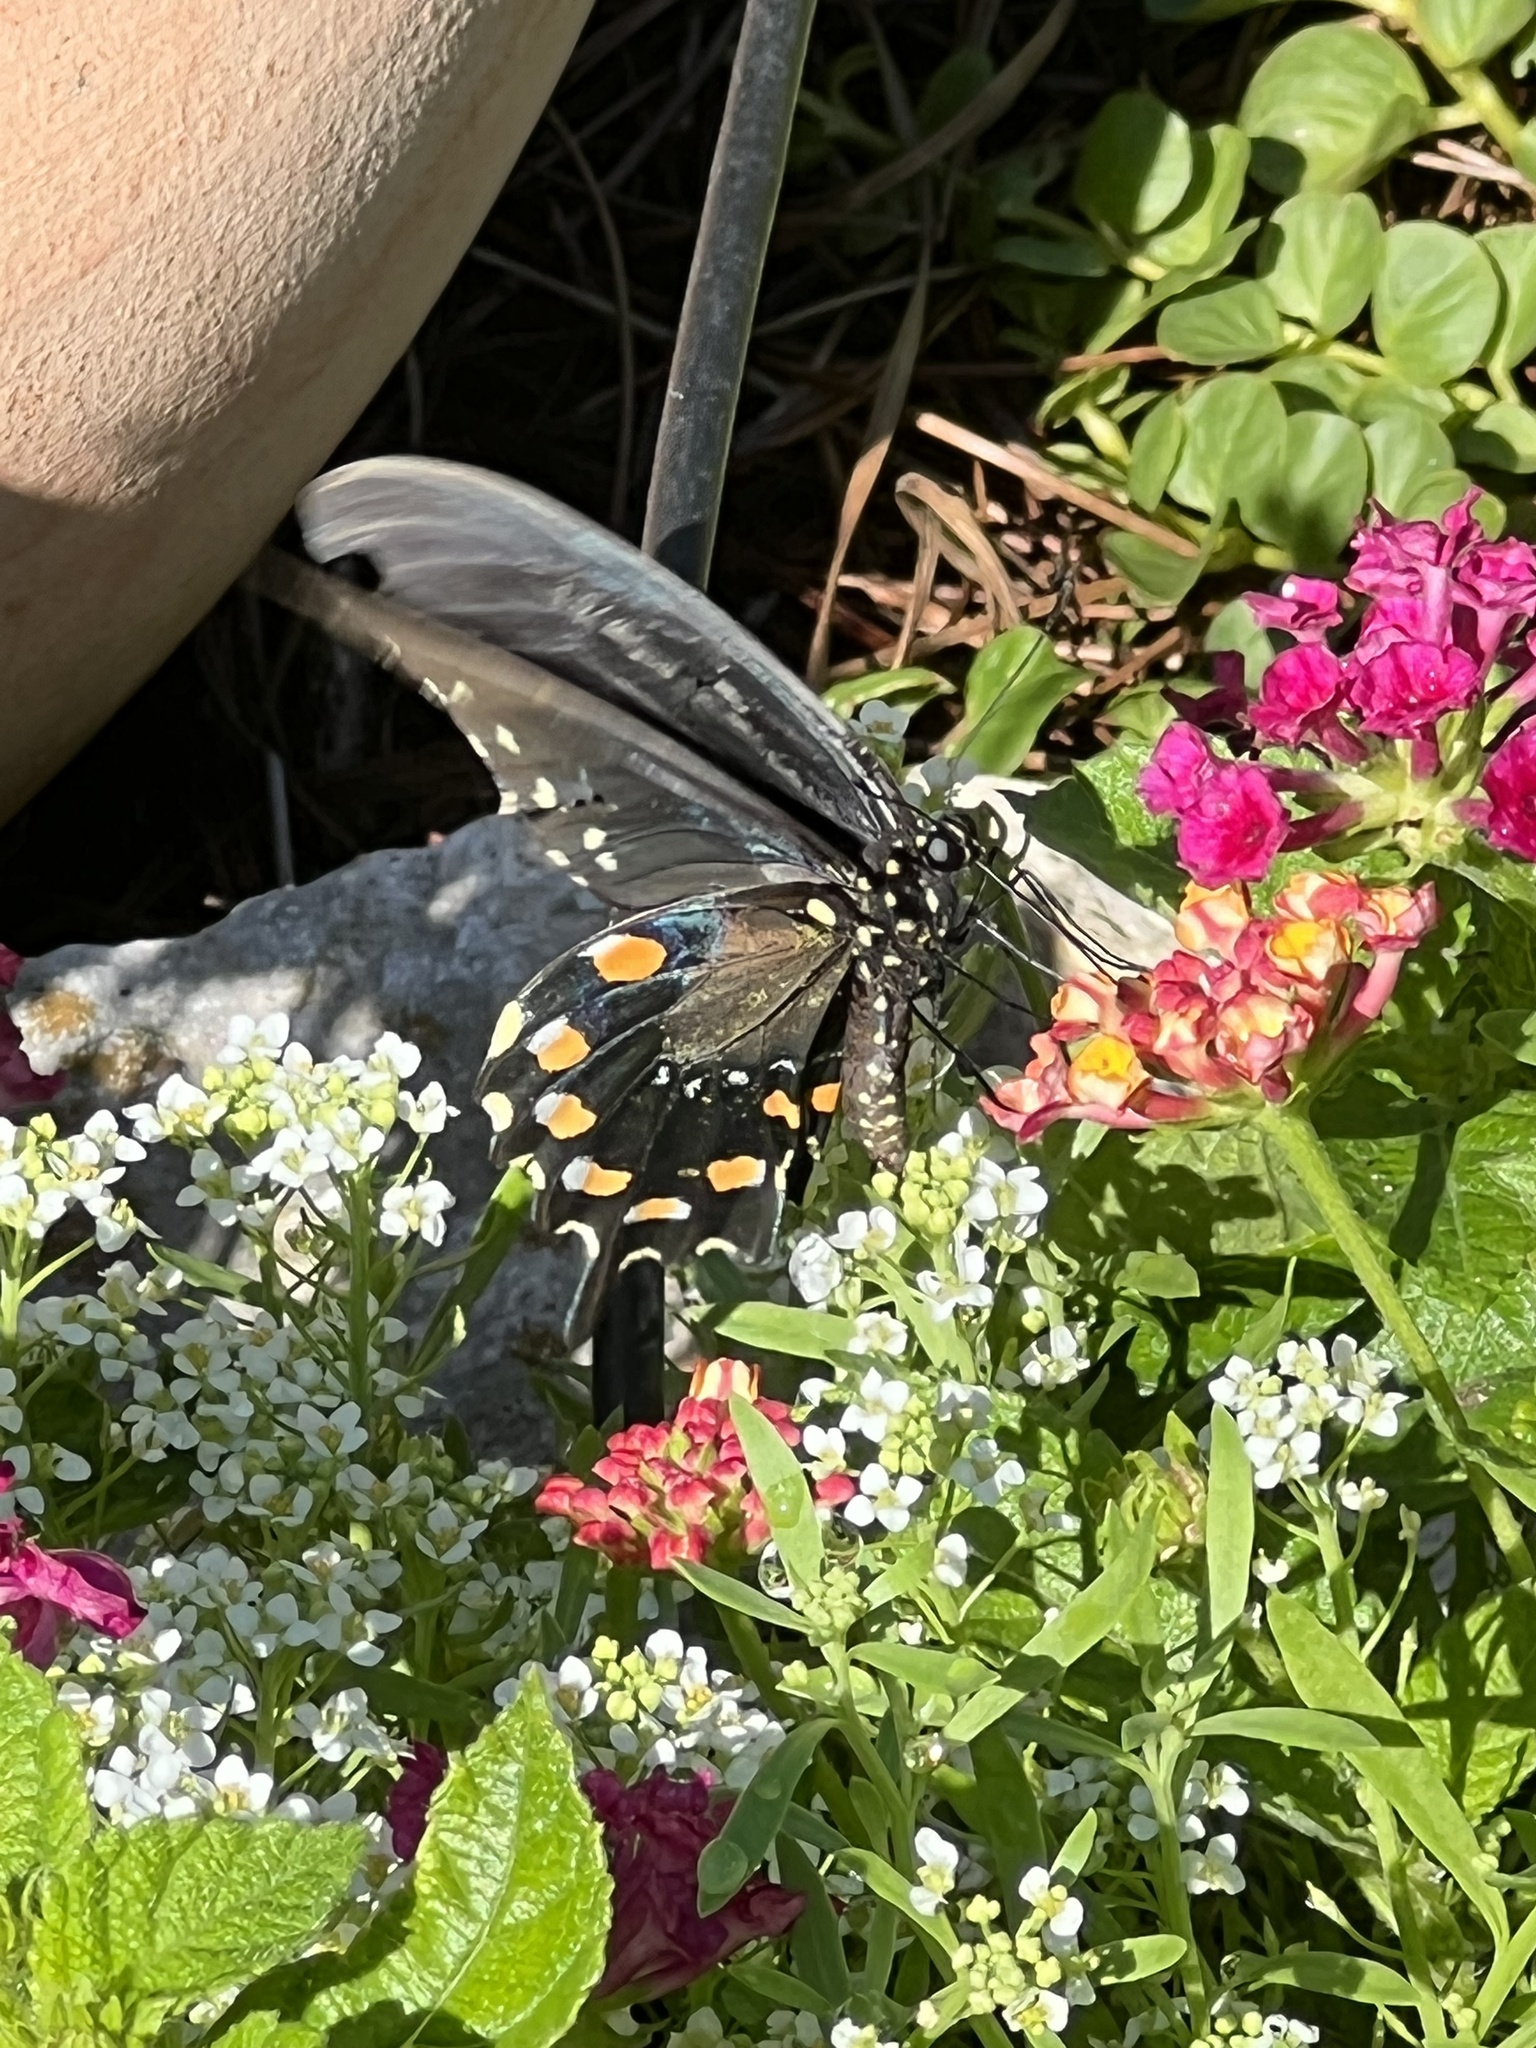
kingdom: Animalia
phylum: Arthropoda
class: Insecta
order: Lepidoptera
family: Papilionidae
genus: Battus
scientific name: Battus philenor
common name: Pipevine swallowtail
